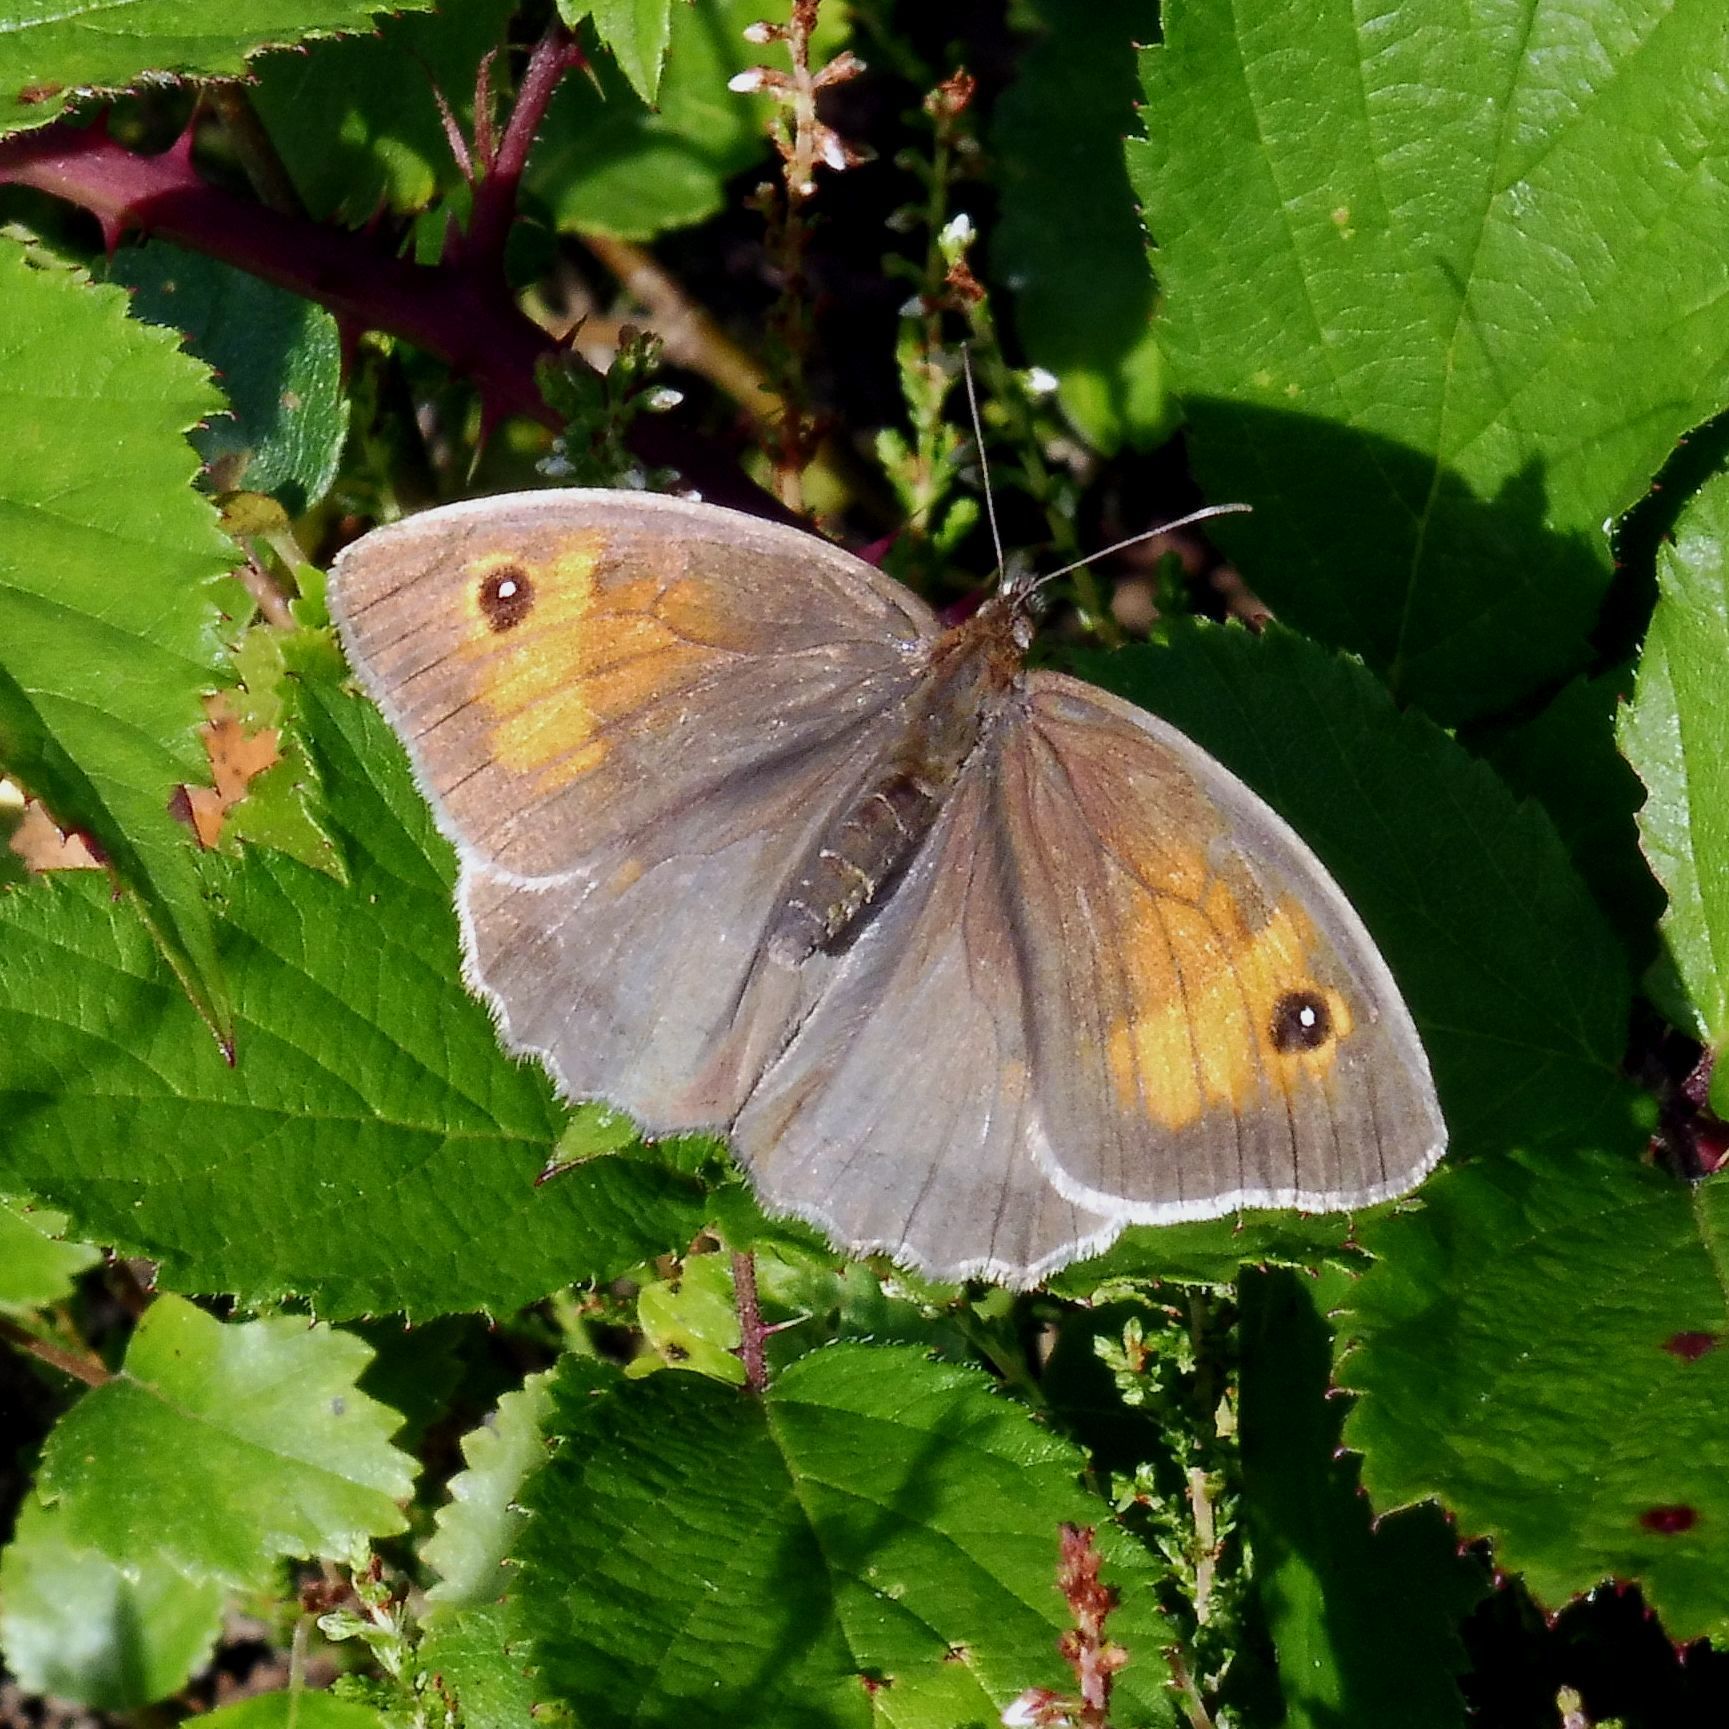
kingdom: Animalia
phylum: Arthropoda
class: Insecta
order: Lepidoptera
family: Nymphalidae
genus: Maniola
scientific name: Maniola jurtina
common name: Meadow brown
